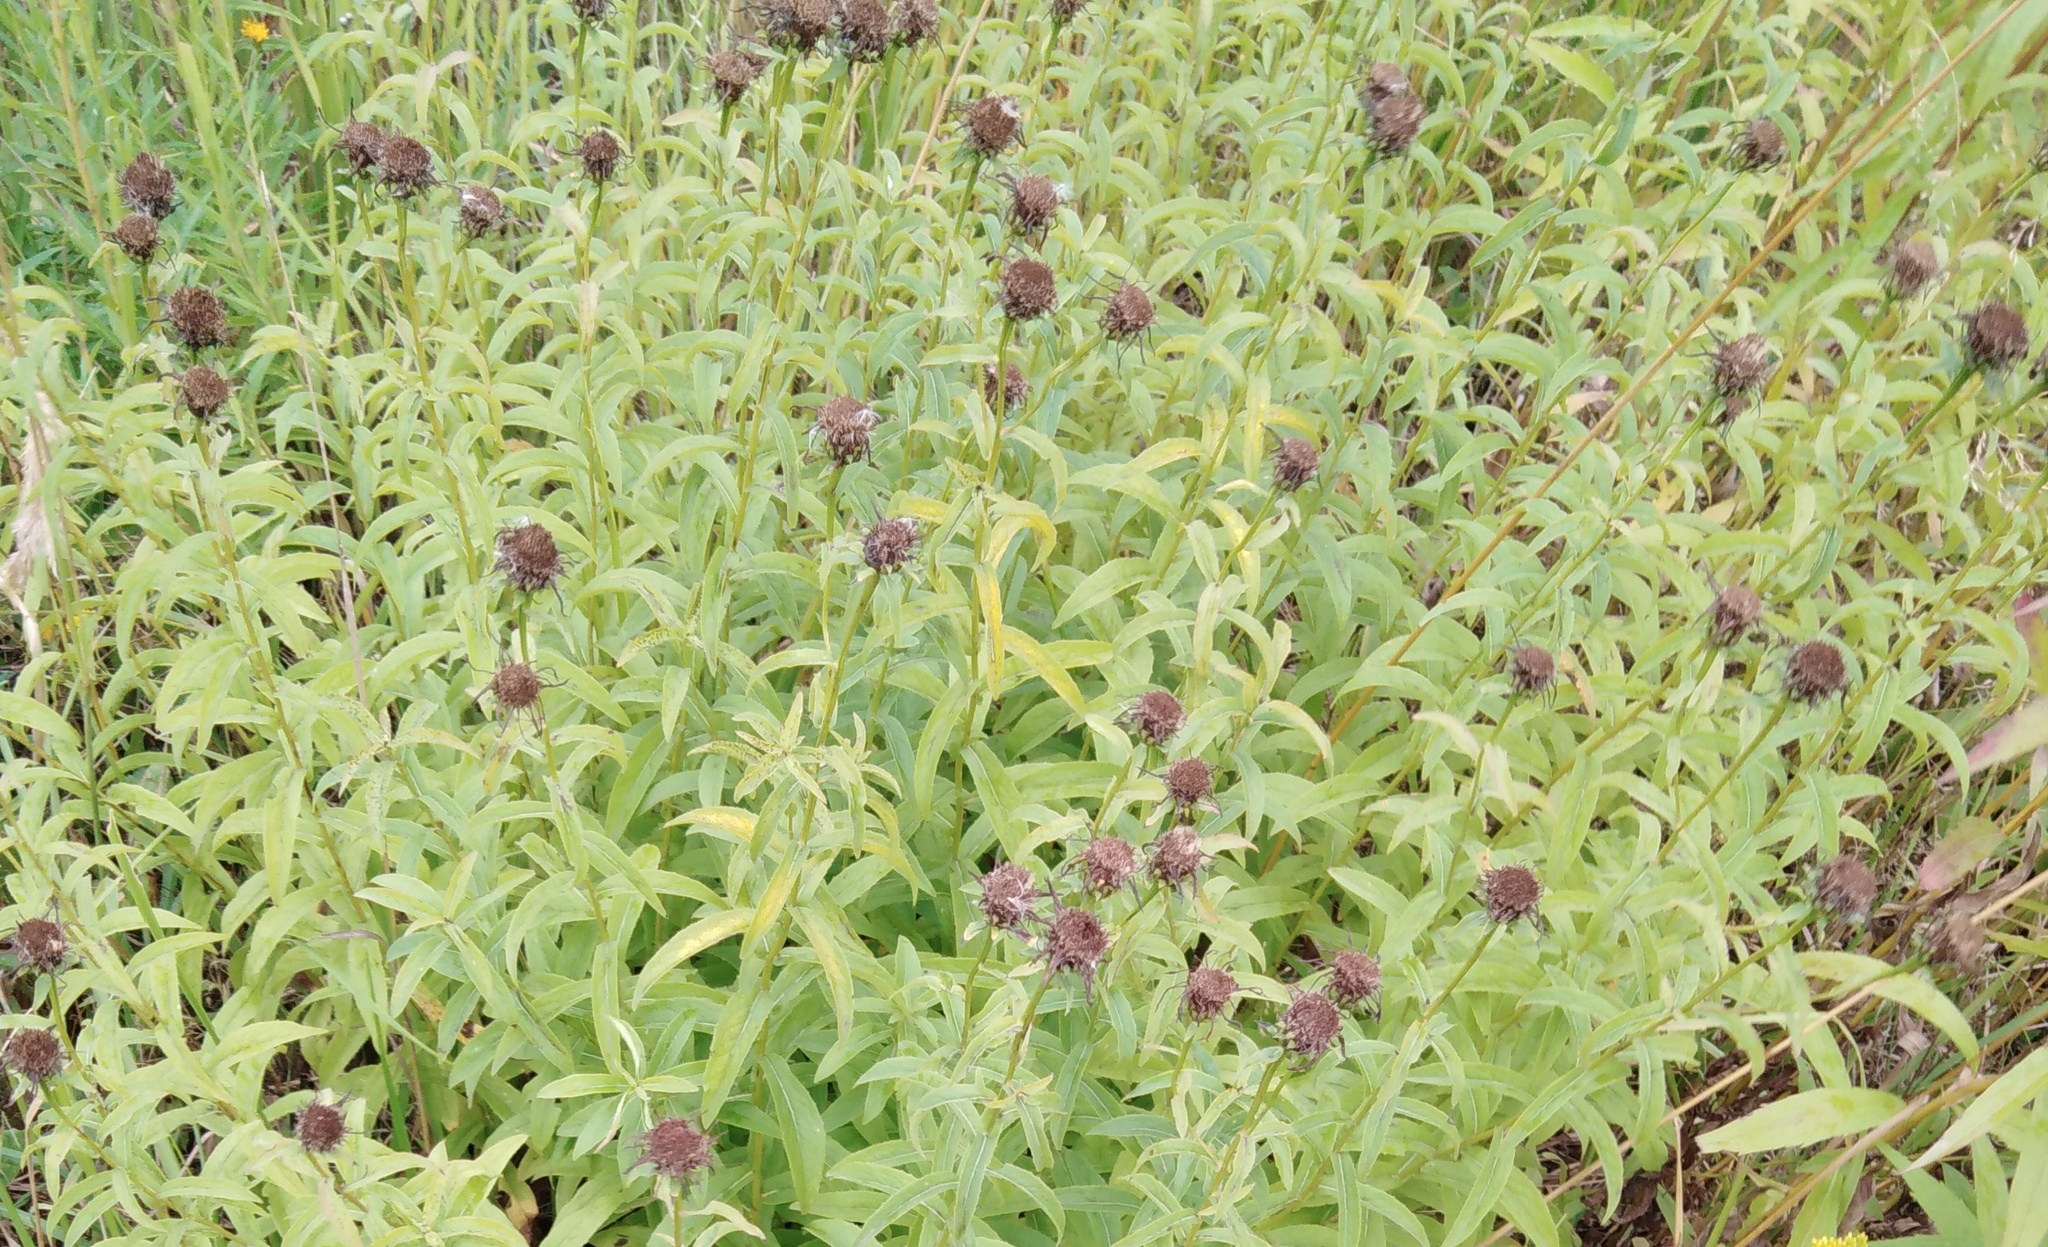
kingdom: Plantae
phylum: Tracheophyta
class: Magnoliopsida
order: Asterales
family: Asteraceae
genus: Pentanema
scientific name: Pentanema salicinum
